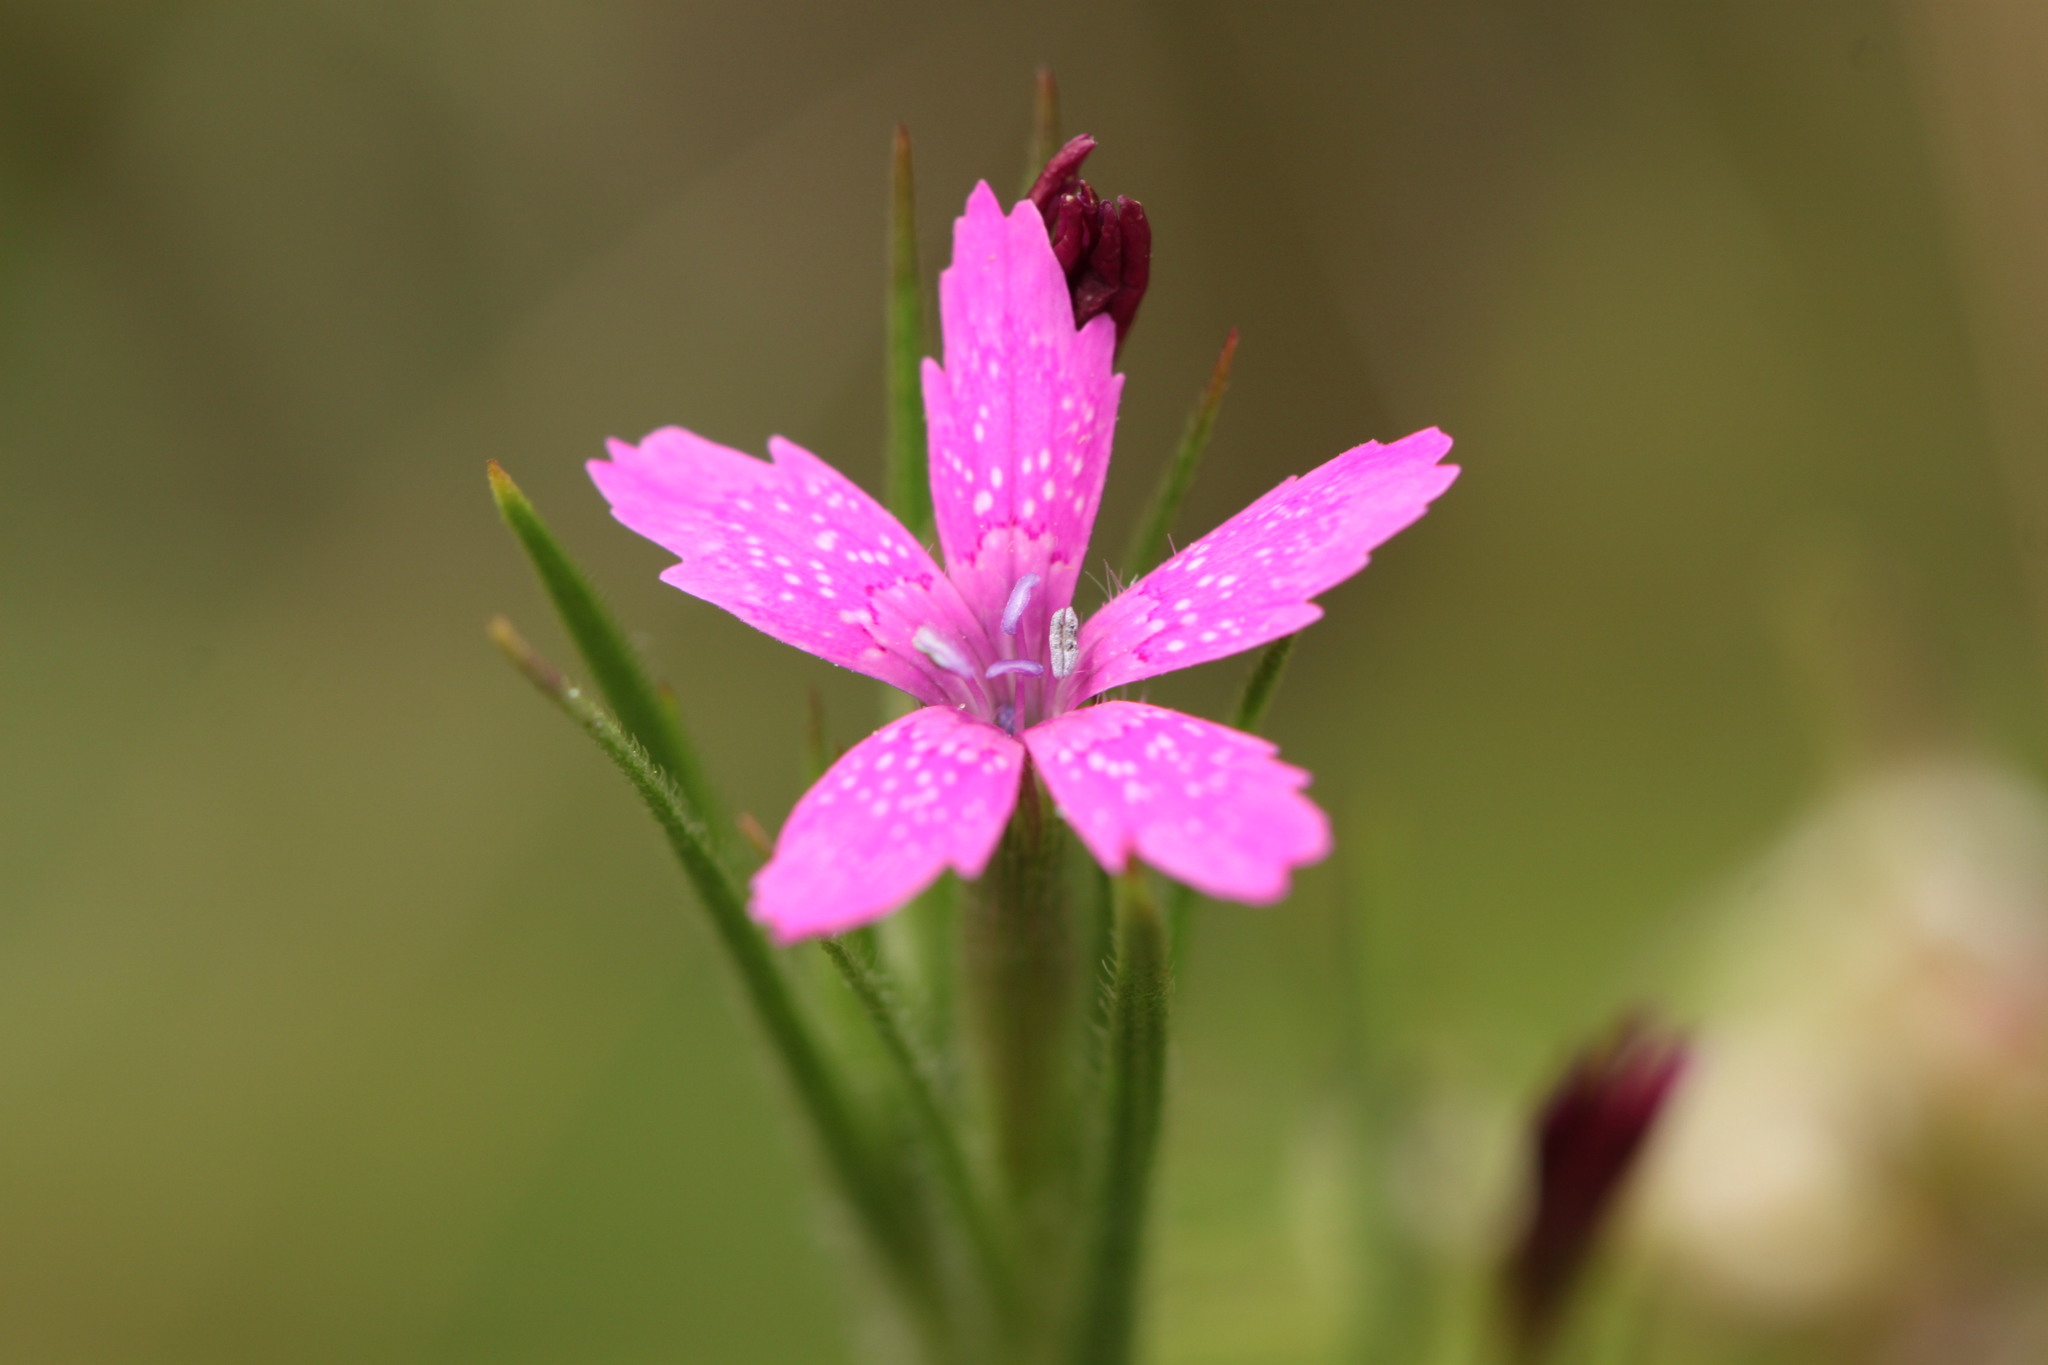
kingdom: Plantae
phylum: Tracheophyta
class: Magnoliopsida
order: Caryophyllales
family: Caryophyllaceae
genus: Dianthus
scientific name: Dianthus armeria
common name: Deptford pink
